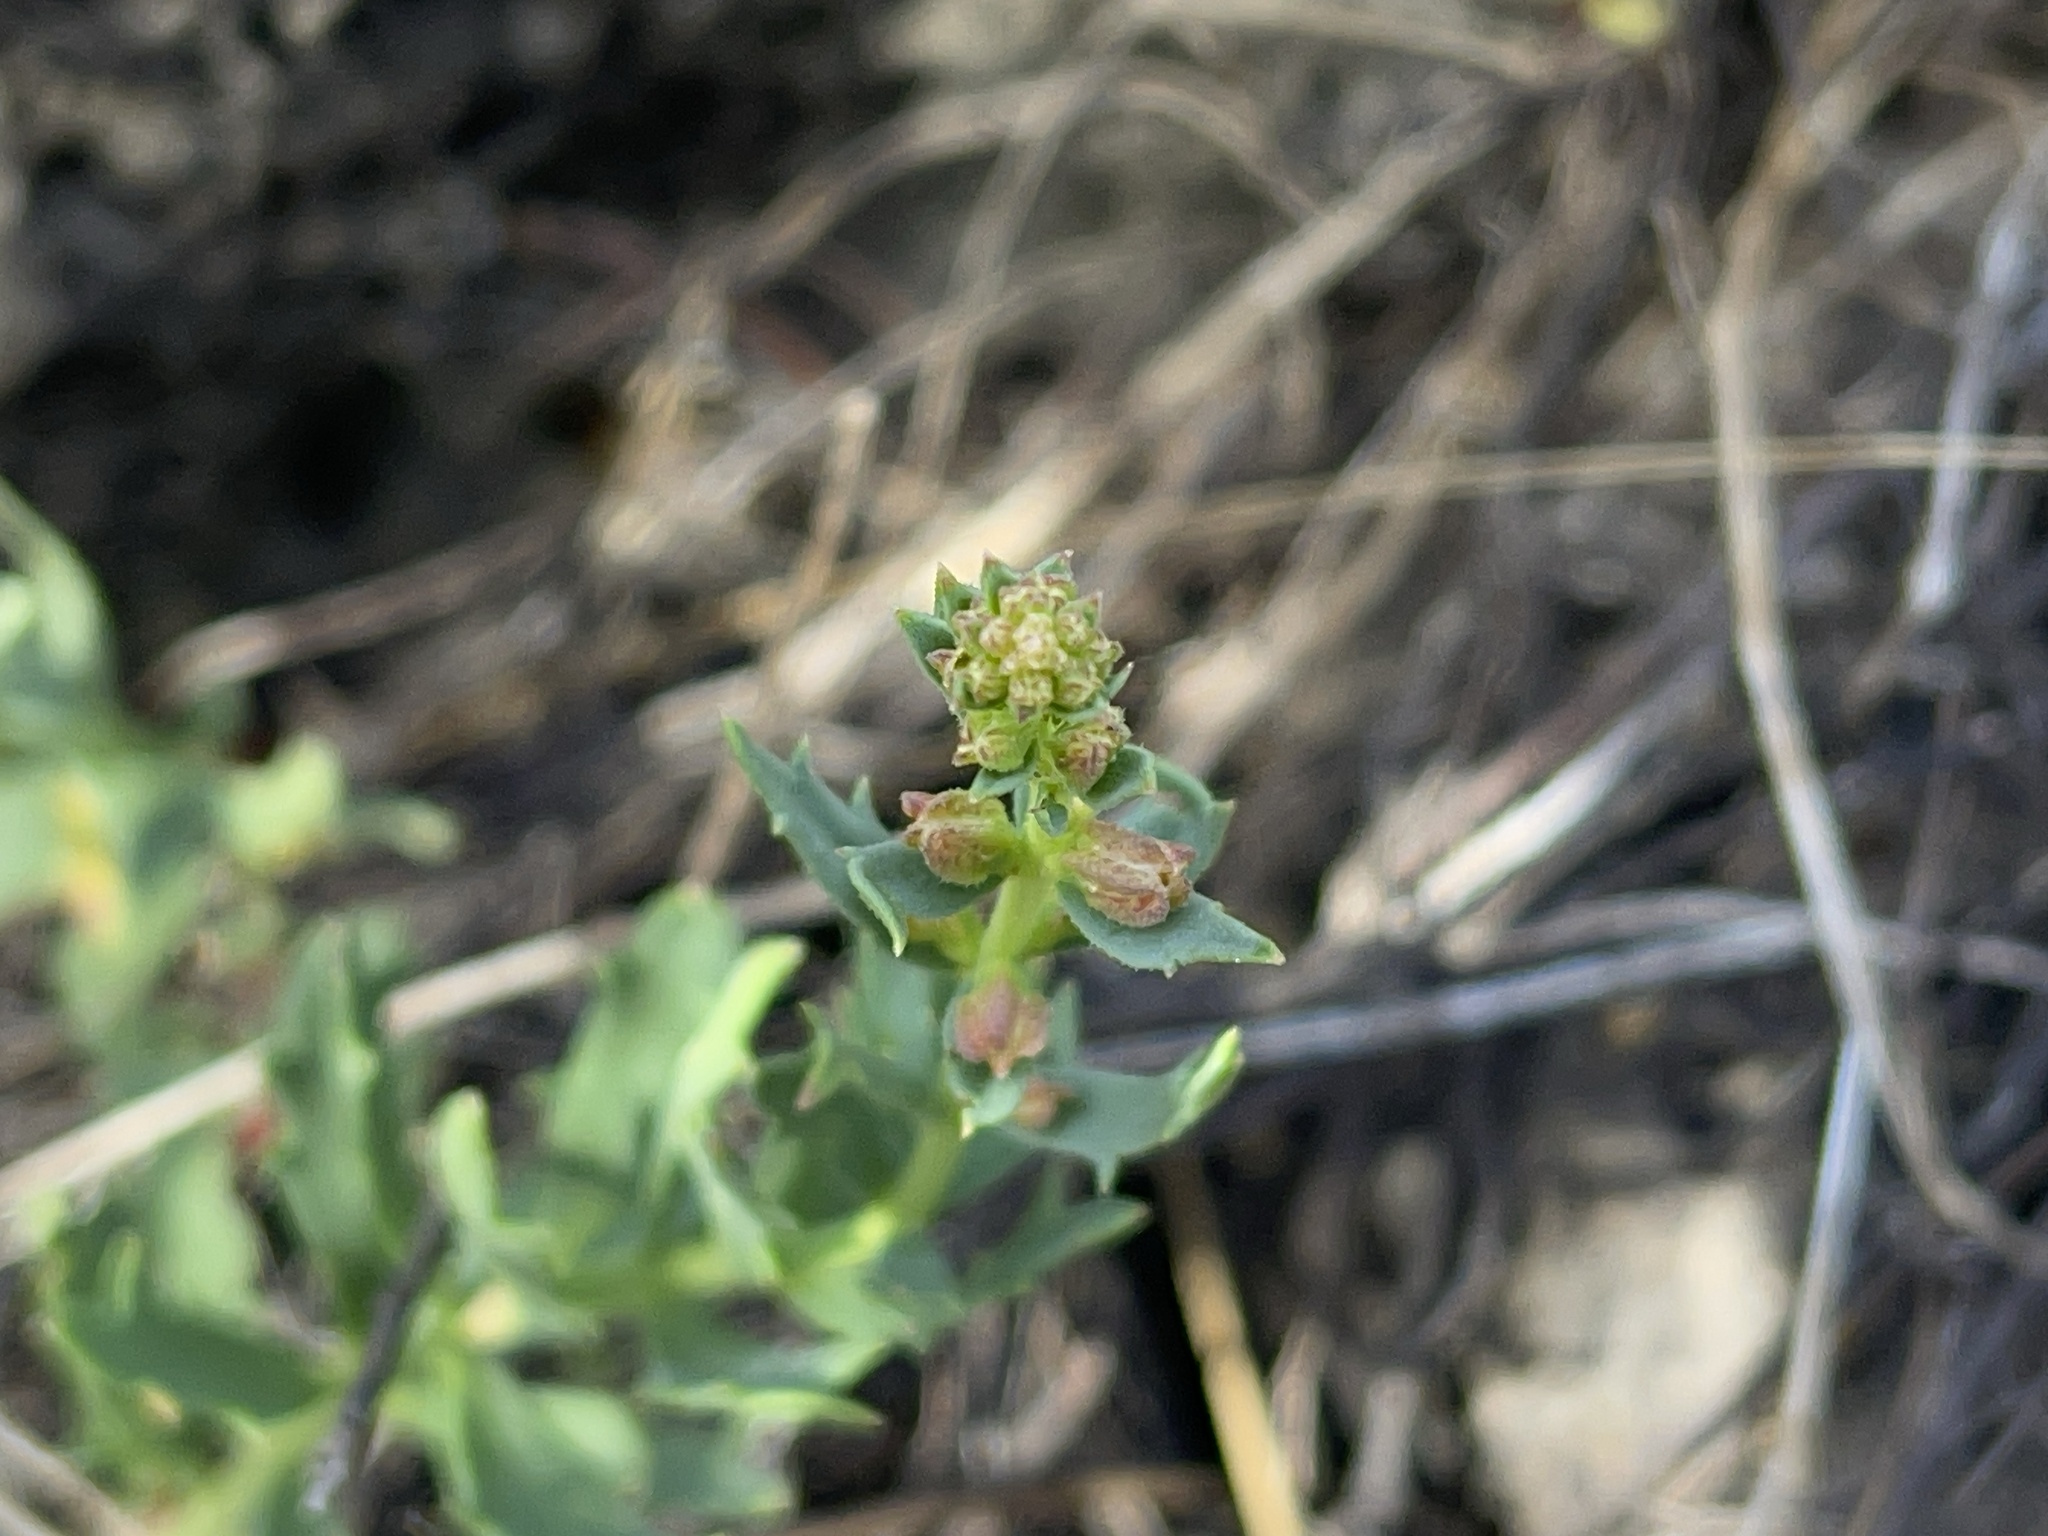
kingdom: Plantae
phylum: Tracheophyta
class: Magnoliopsida
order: Saxifragales
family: Haloragaceae
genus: Haloragis
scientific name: Haloragis heterophylla
